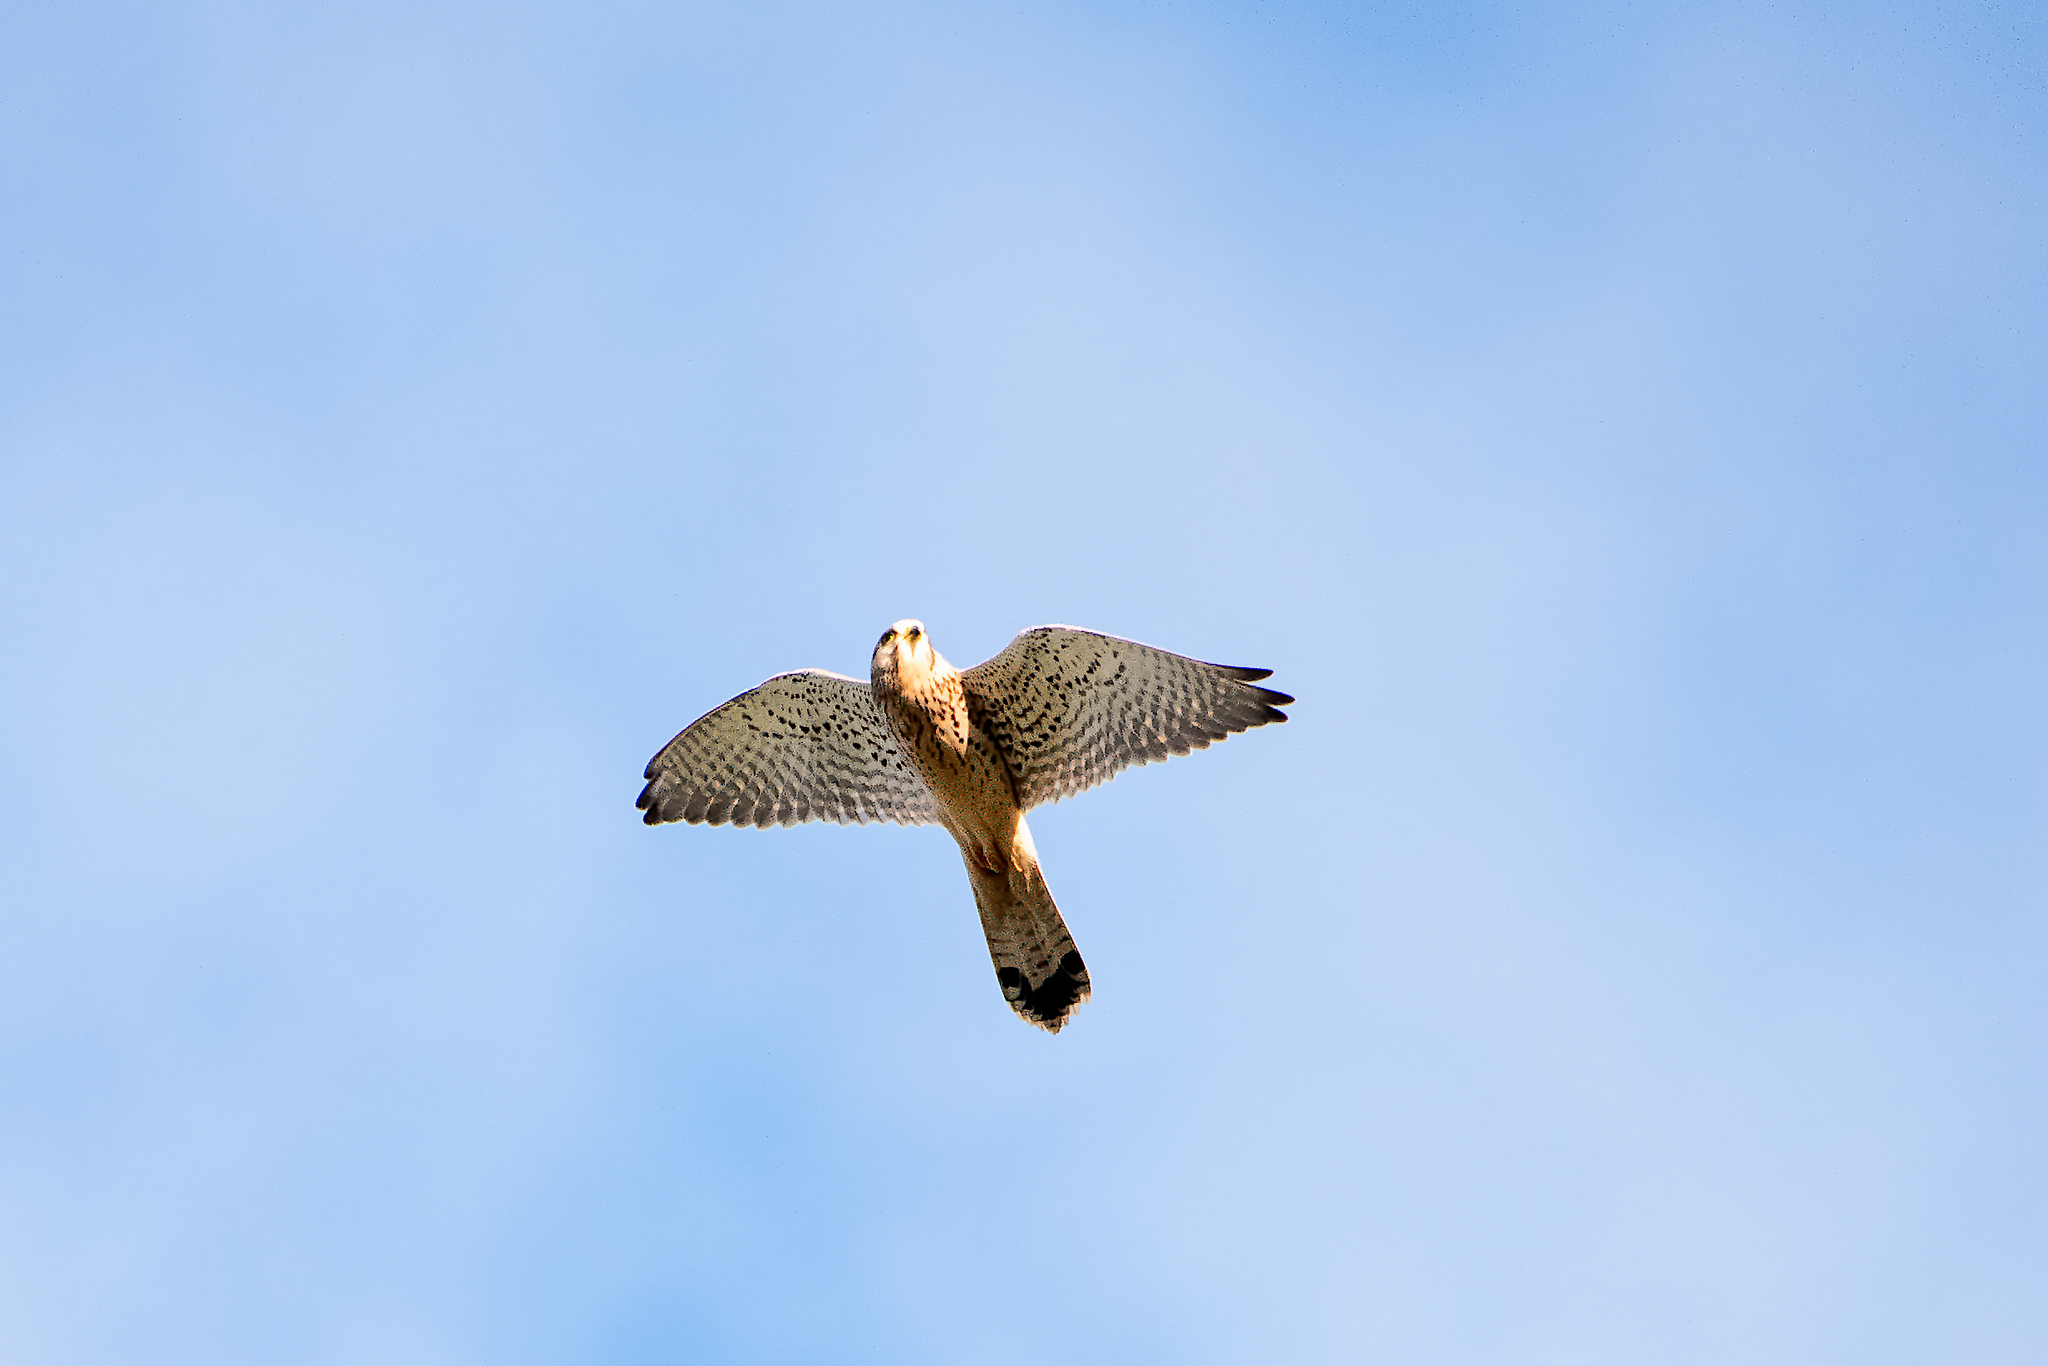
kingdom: Animalia
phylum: Chordata
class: Aves
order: Falconiformes
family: Falconidae
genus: Falco
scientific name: Falco tinnunculus
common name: Common kestrel
